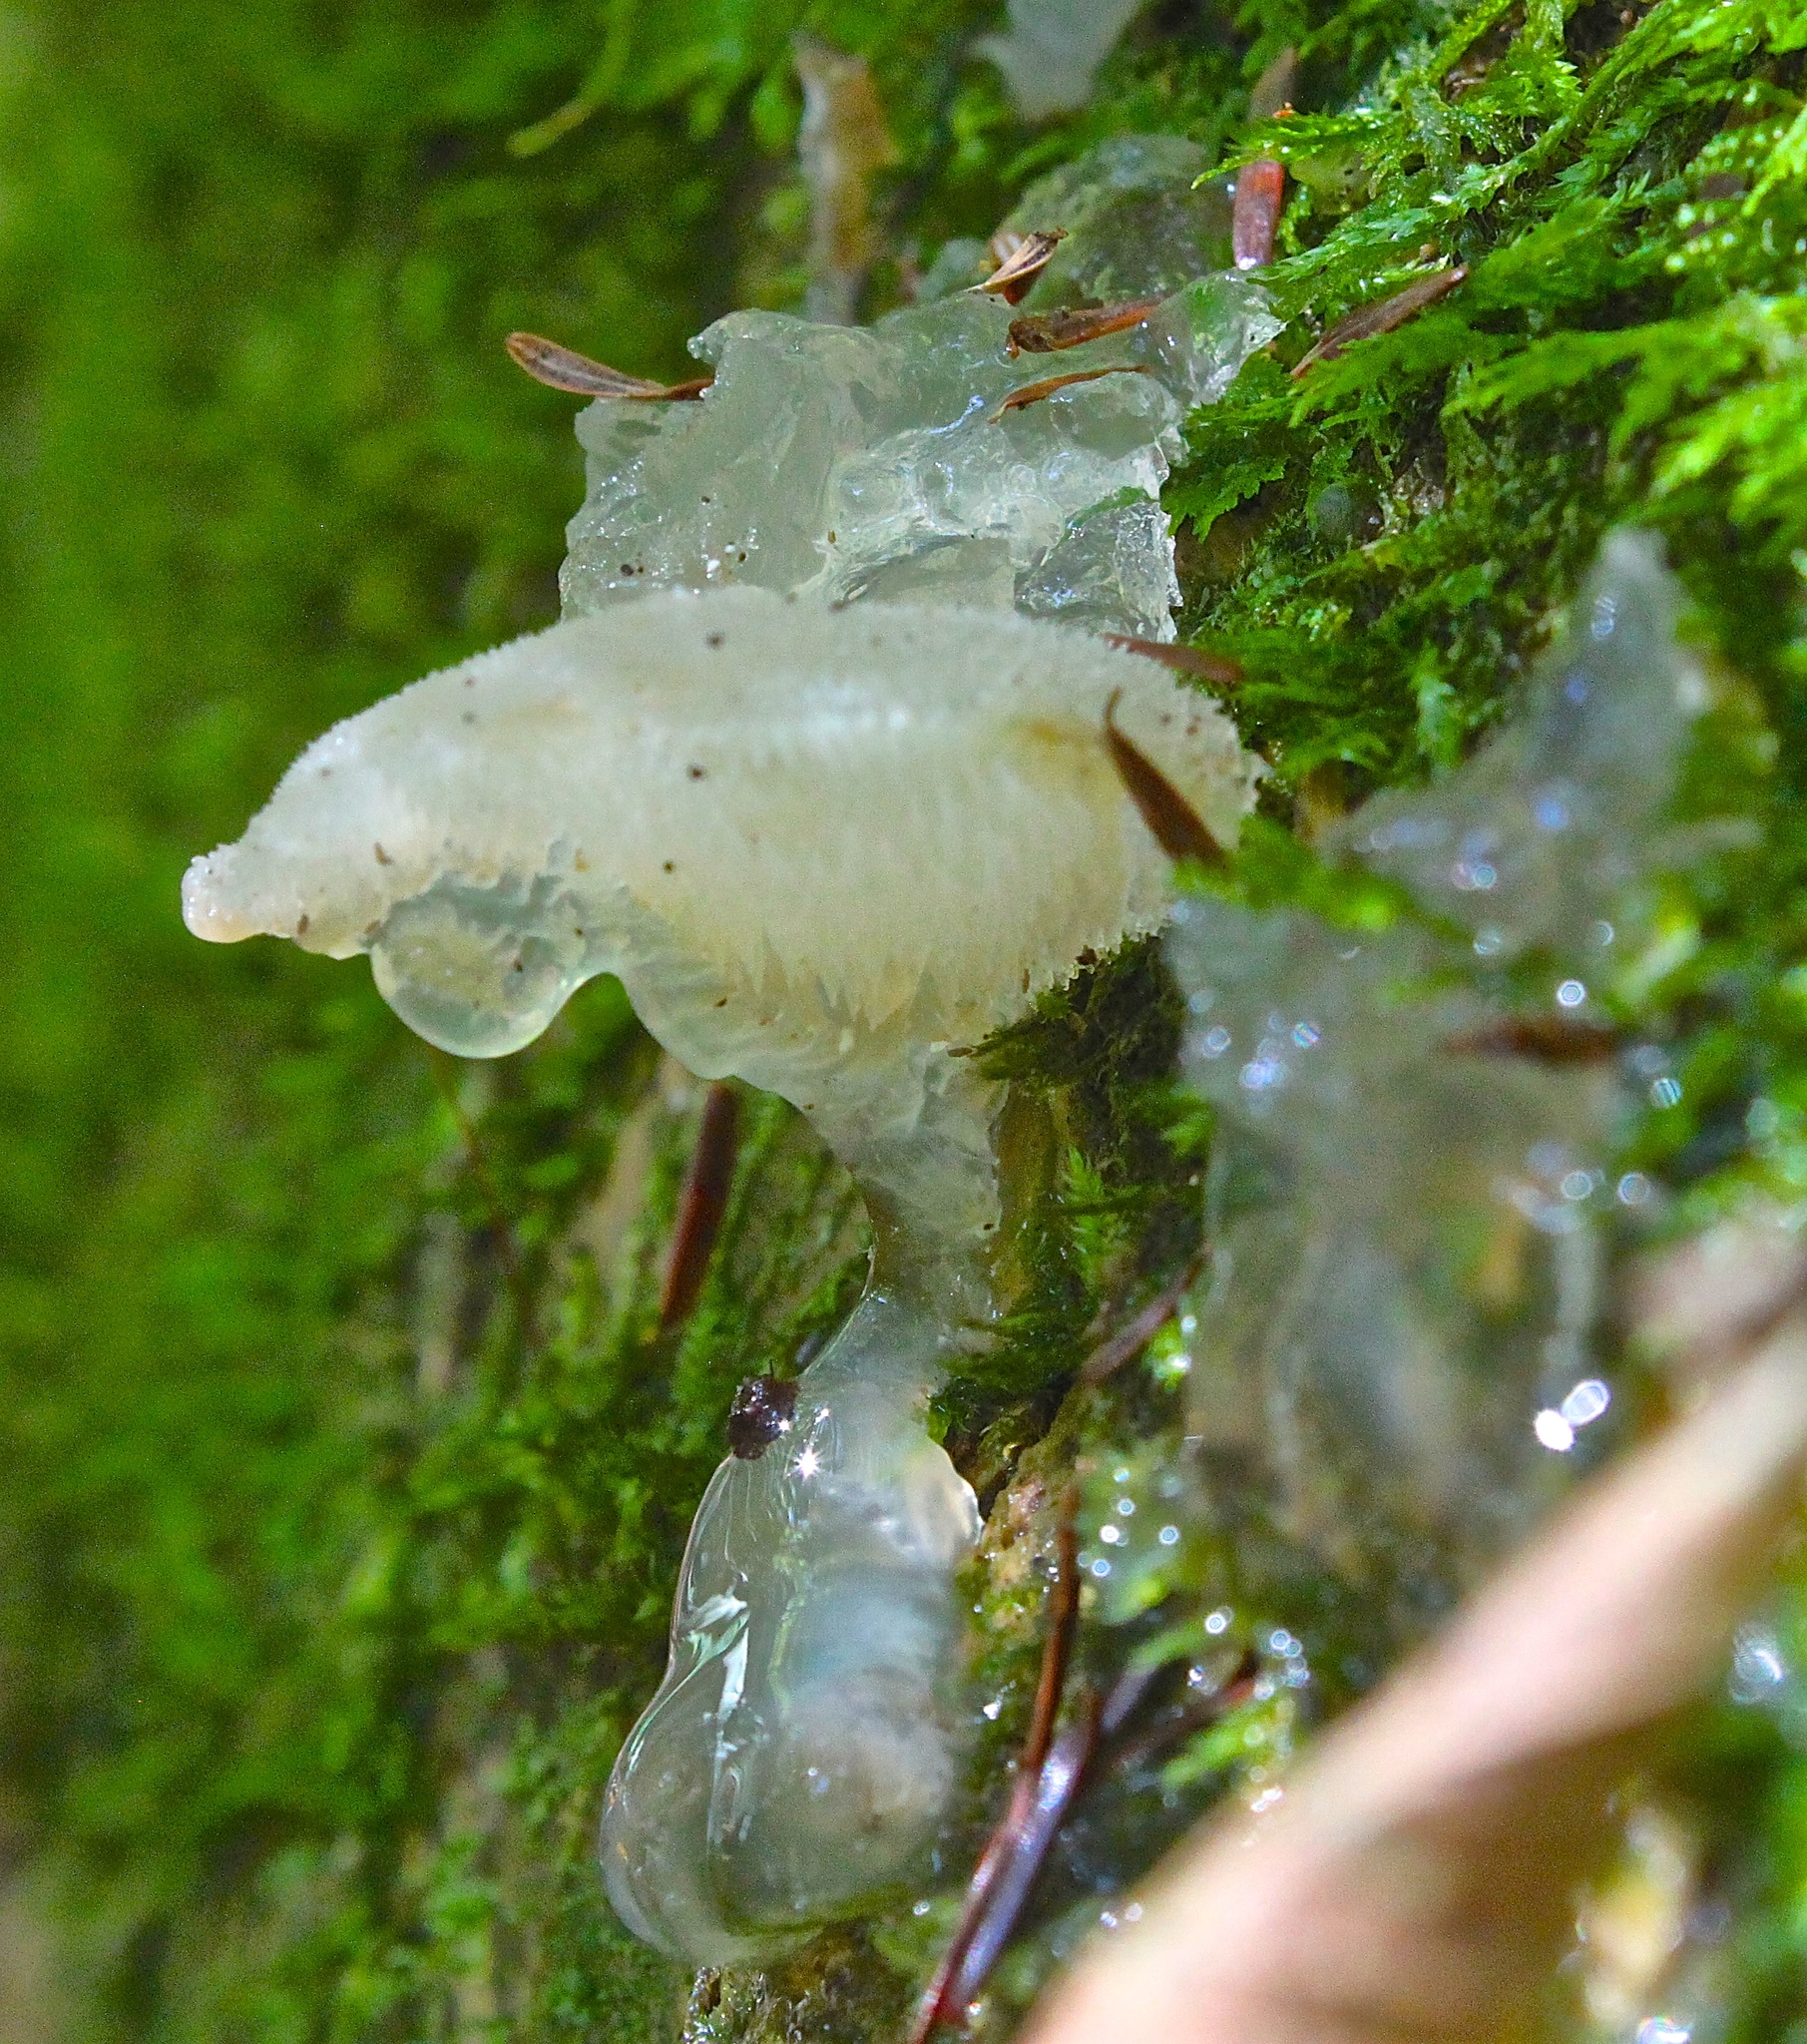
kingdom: Fungi
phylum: Basidiomycota
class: Agaricomycetes
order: Auriculariales
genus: Pseudohydnum
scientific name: Pseudohydnum gelatinosum
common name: Jelly tongue
